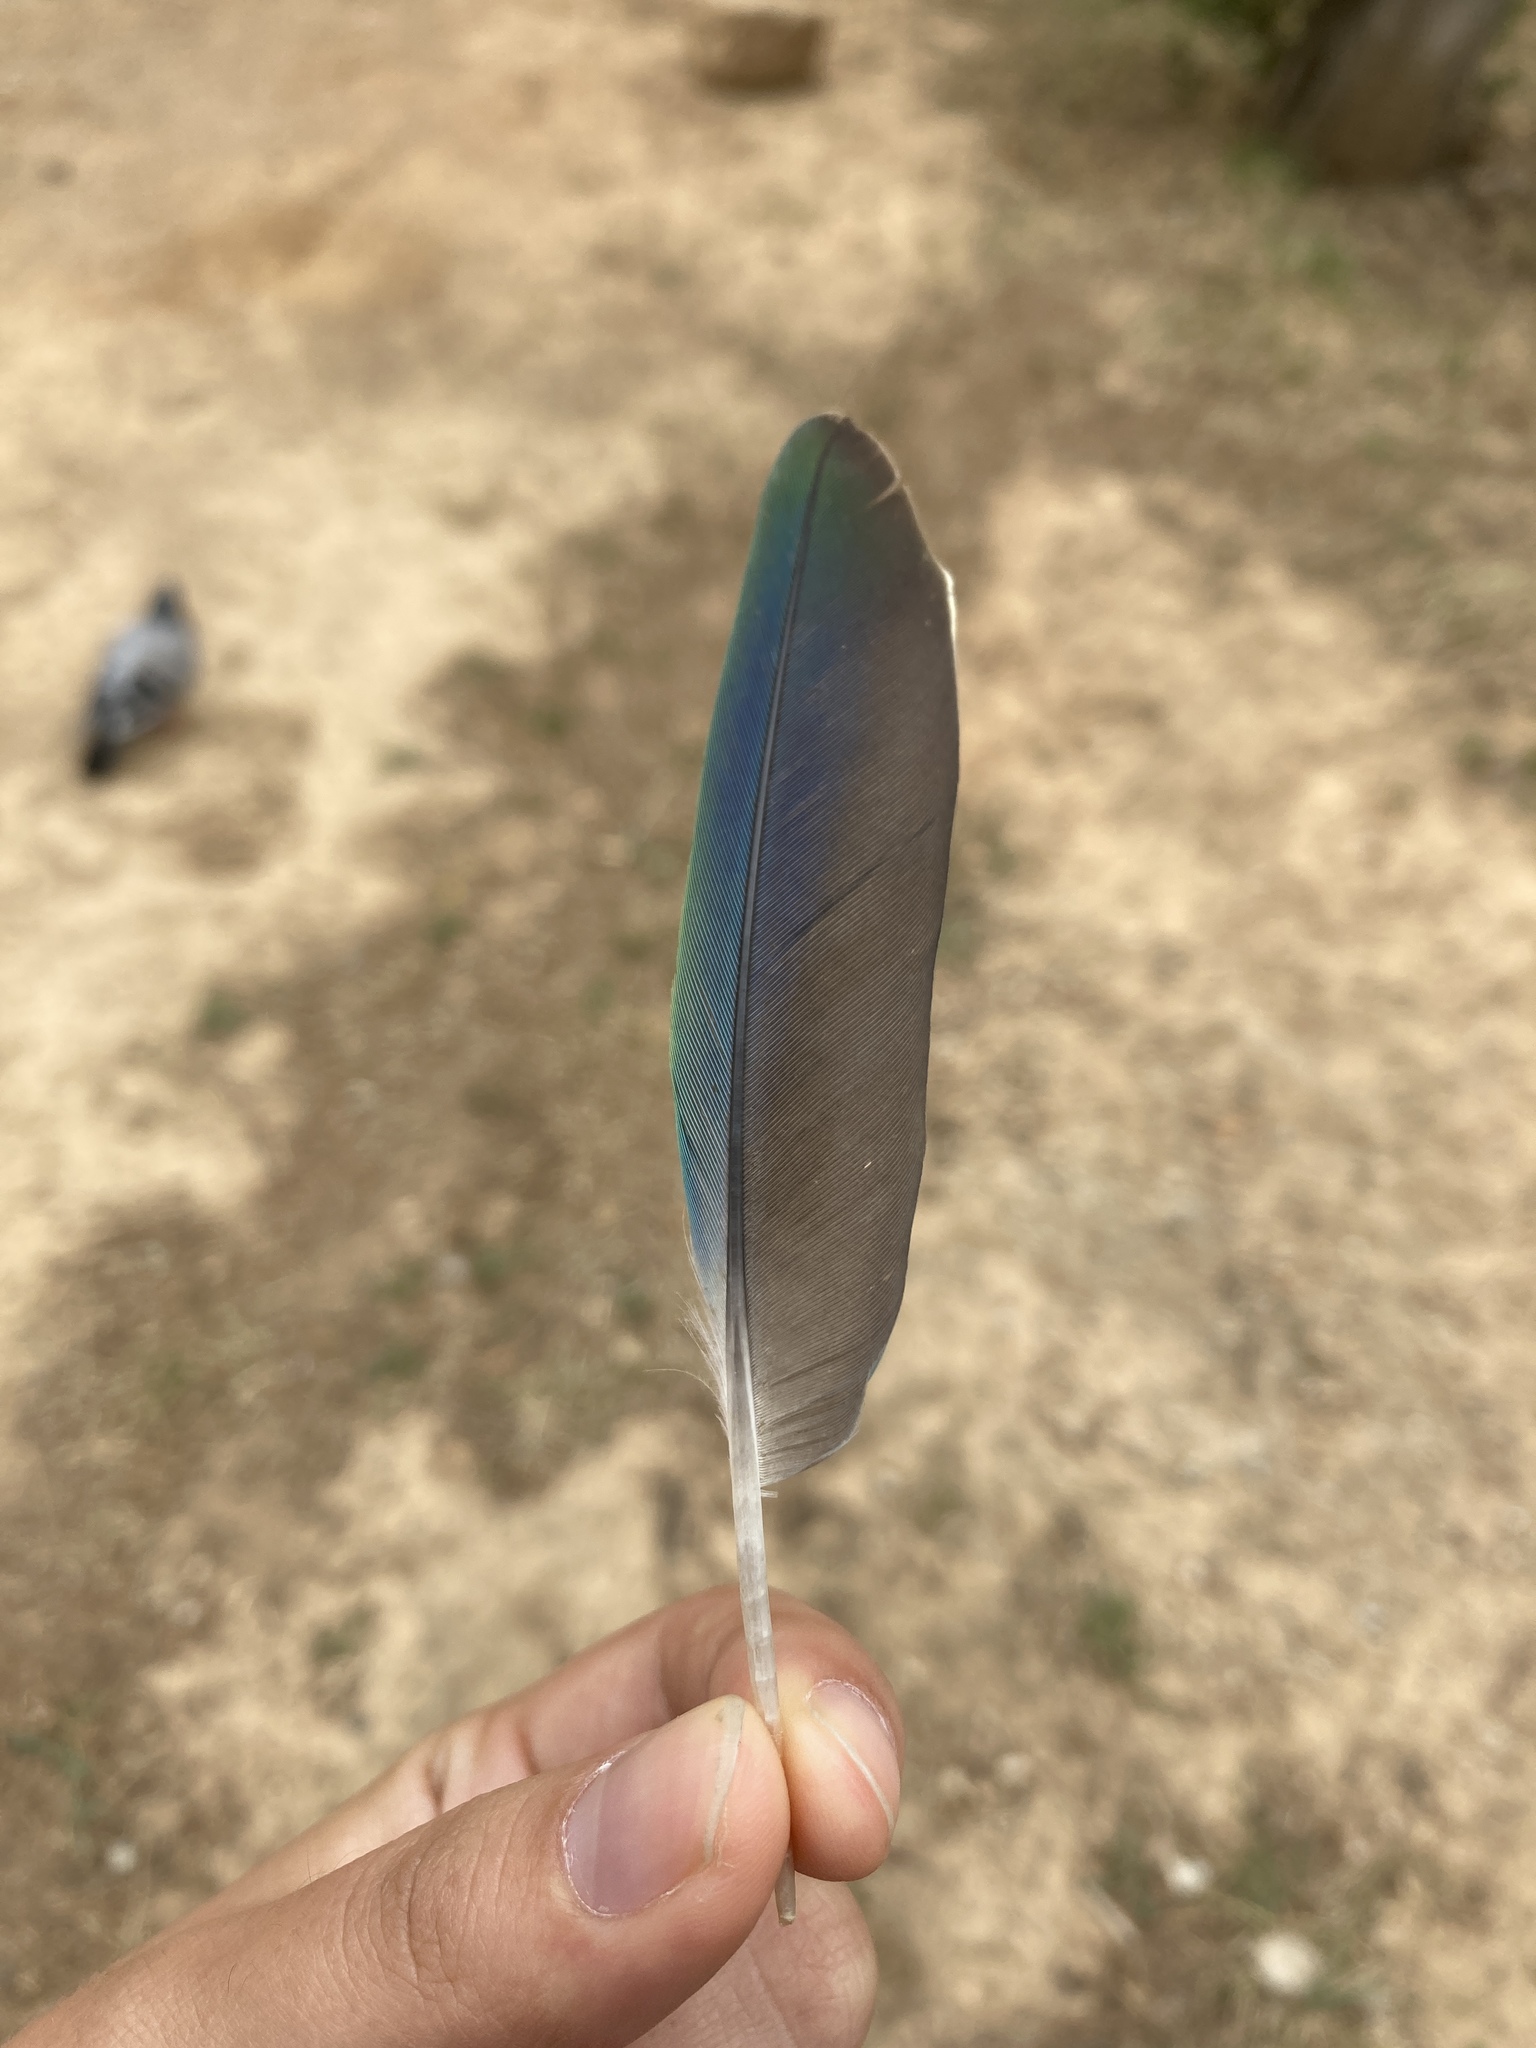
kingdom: Animalia
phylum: Chordata
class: Aves
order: Psittaciformes
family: Psittacidae
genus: Myiopsitta
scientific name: Myiopsitta monachus
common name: Monk parakeet
